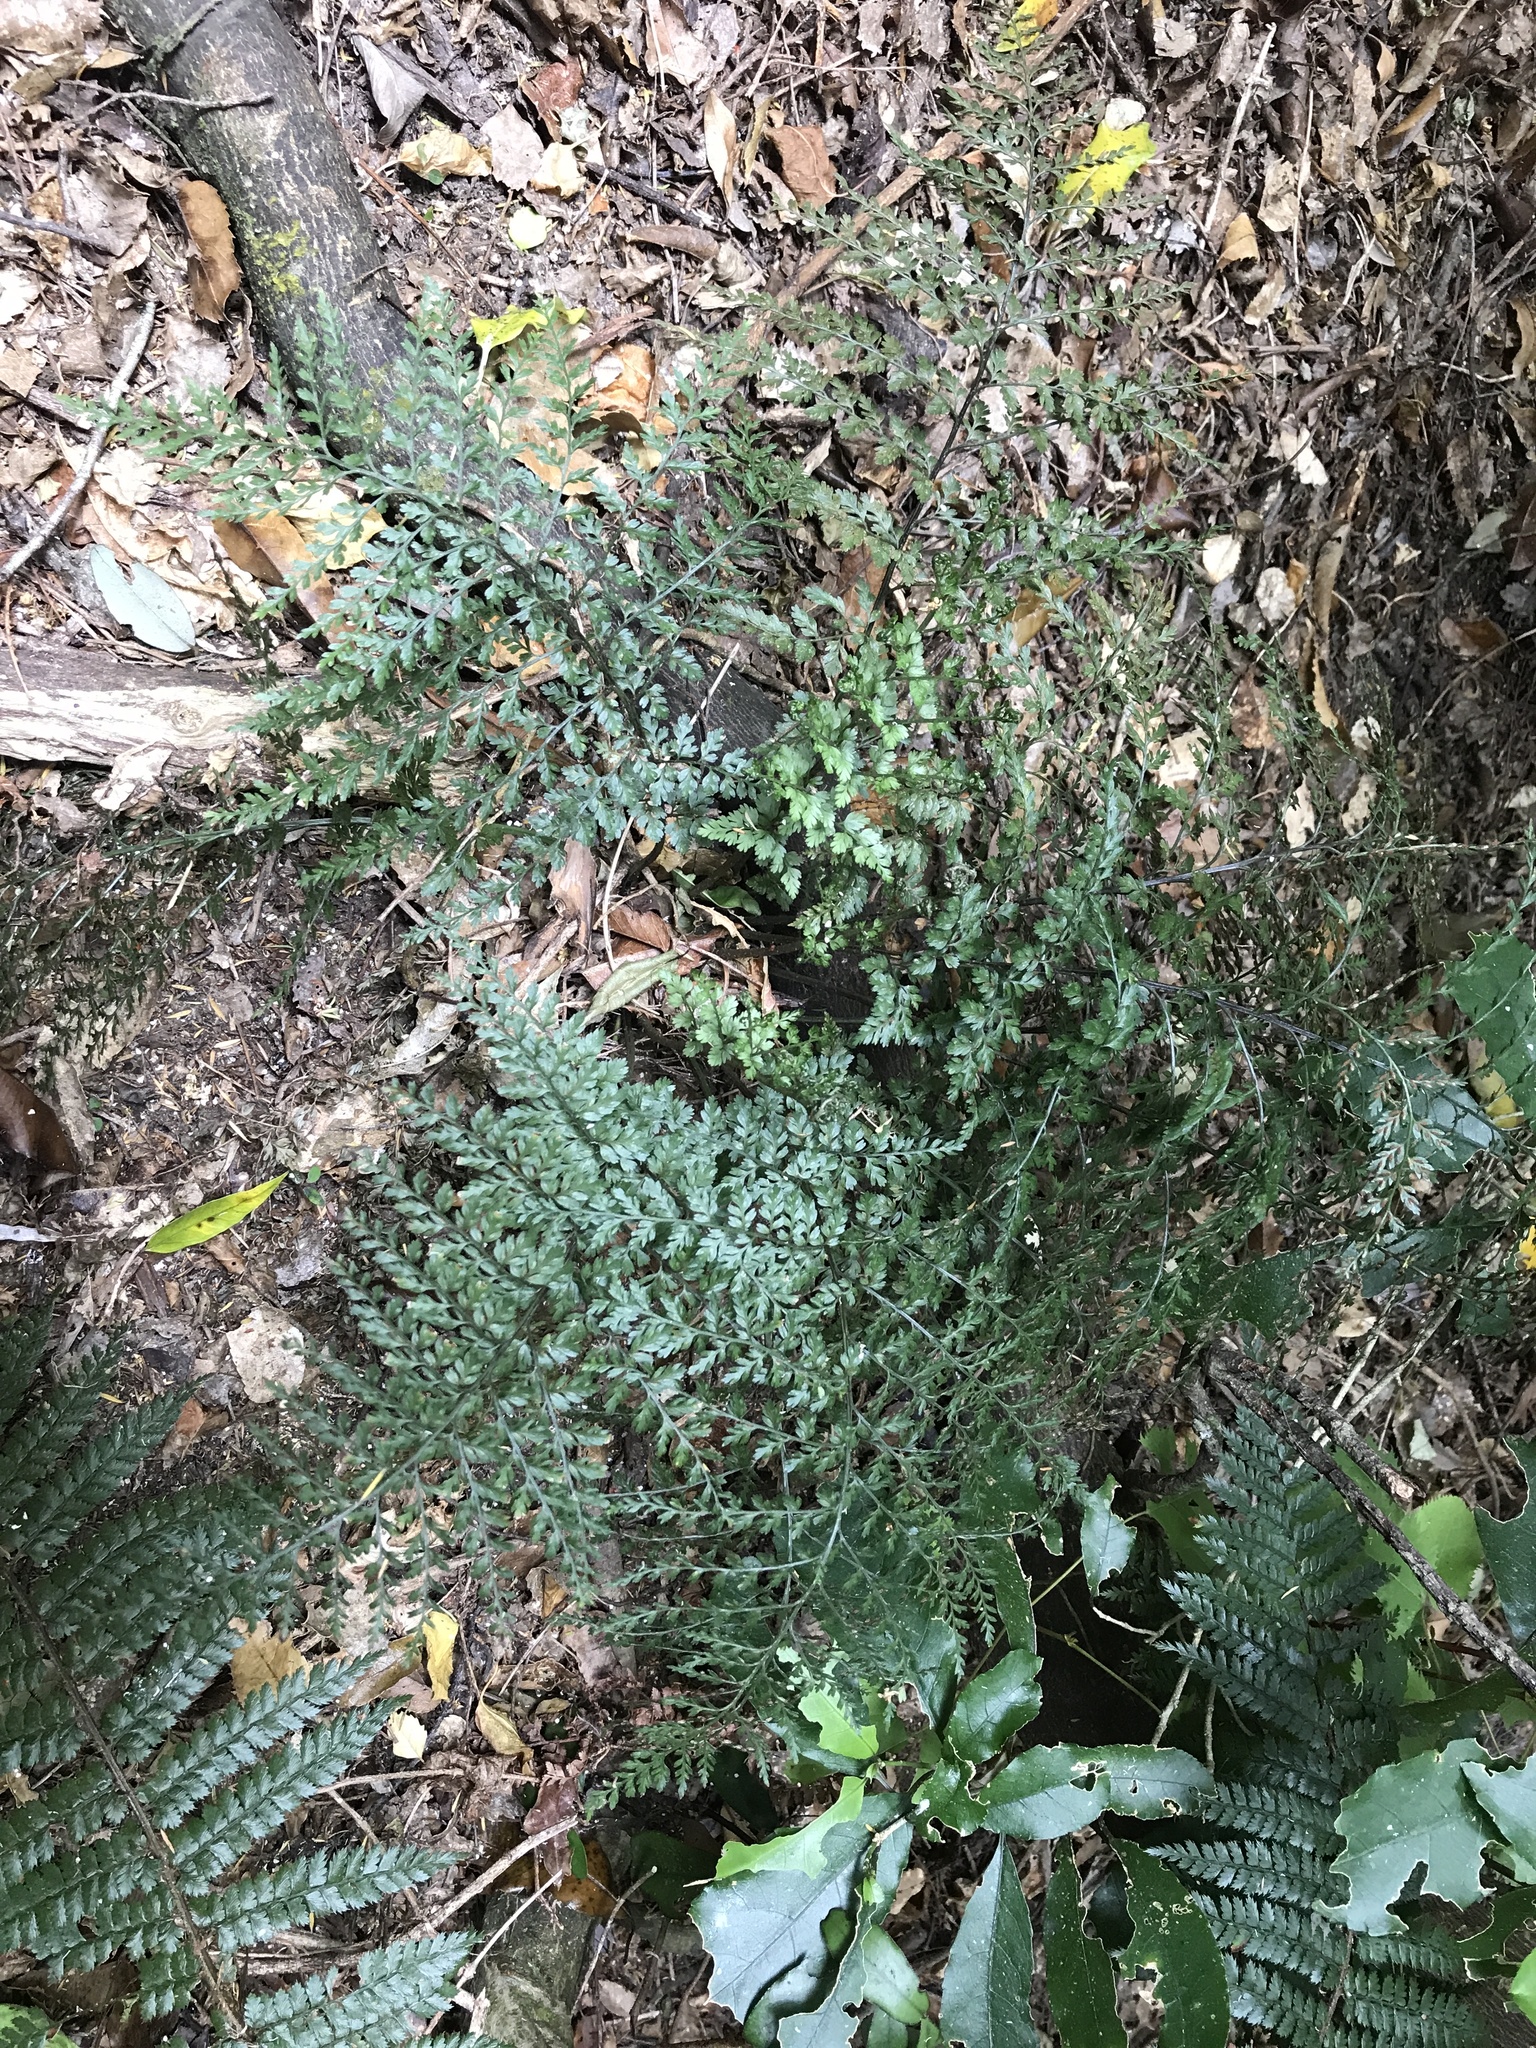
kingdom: Plantae
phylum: Tracheophyta
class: Polypodiopsida
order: Polypodiales
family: Aspleniaceae
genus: Asplenium
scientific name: Asplenium hookerianum
